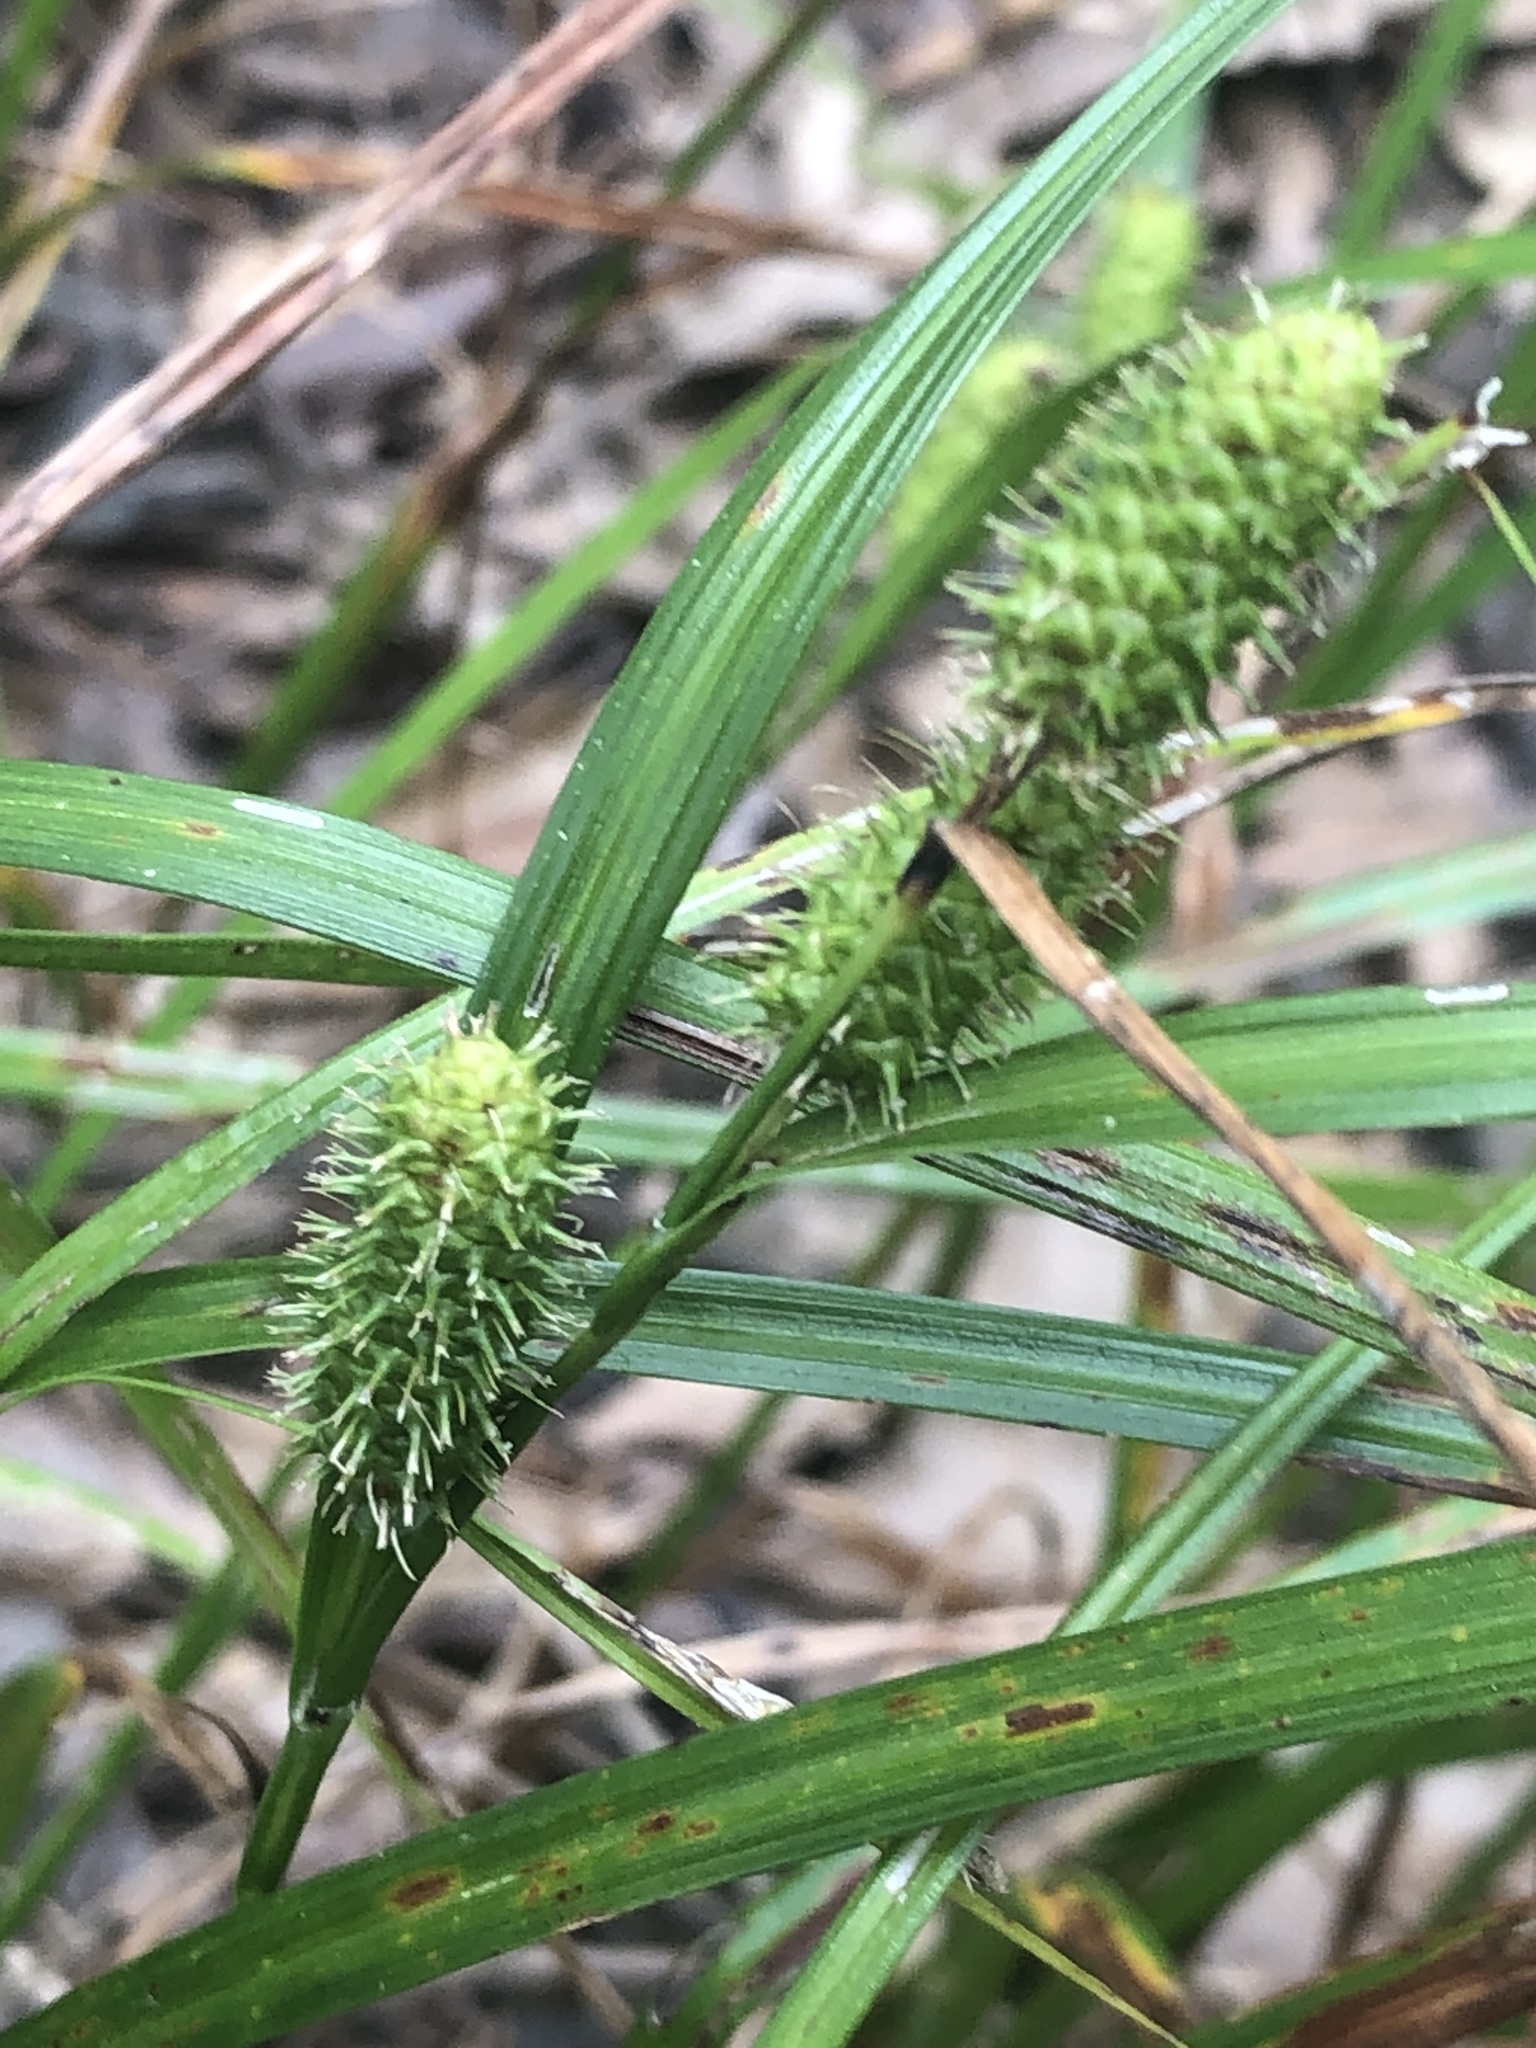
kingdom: Plantae
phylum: Tracheophyta
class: Liliopsida
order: Poales
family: Cyperaceae
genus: Carex
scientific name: Carex aureolensis
